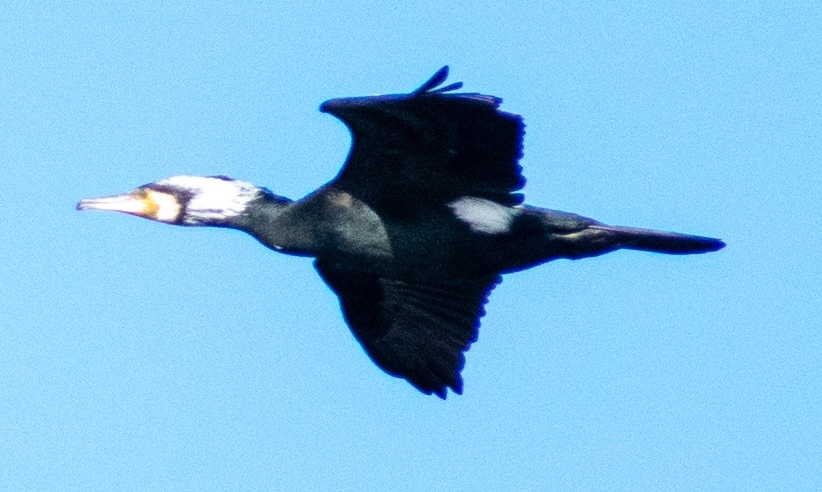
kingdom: Animalia
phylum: Chordata
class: Aves
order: Suliformes
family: Phalacrocoracidae
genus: Phalacrocorax
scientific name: Phalacrocorax carbo
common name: Great cormorant
